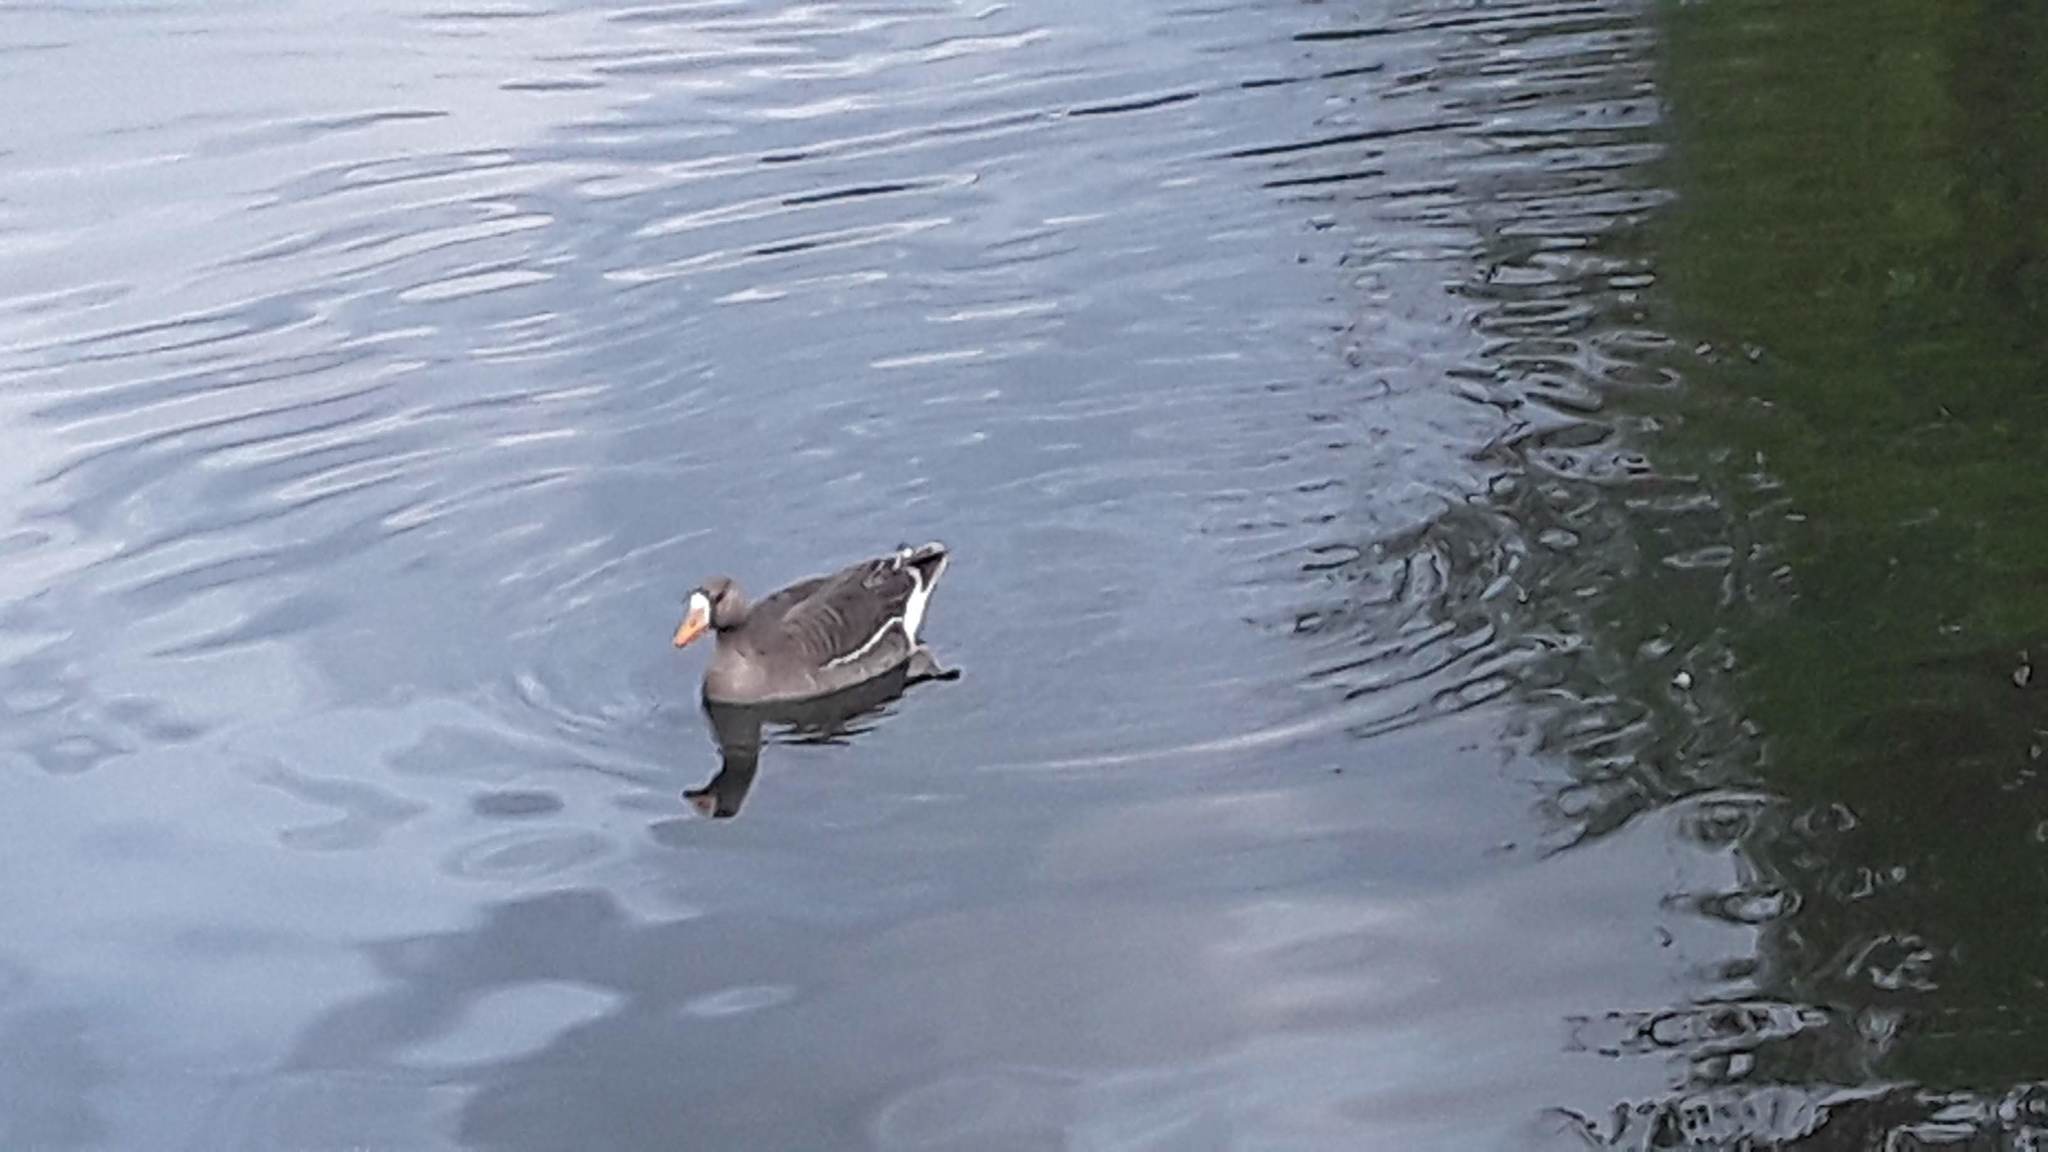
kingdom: Animalia
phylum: Chordata
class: Aves
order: Anseriformes
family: Anatidae
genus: Anser
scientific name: Anser albifrons
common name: Greater white-fronted goose
